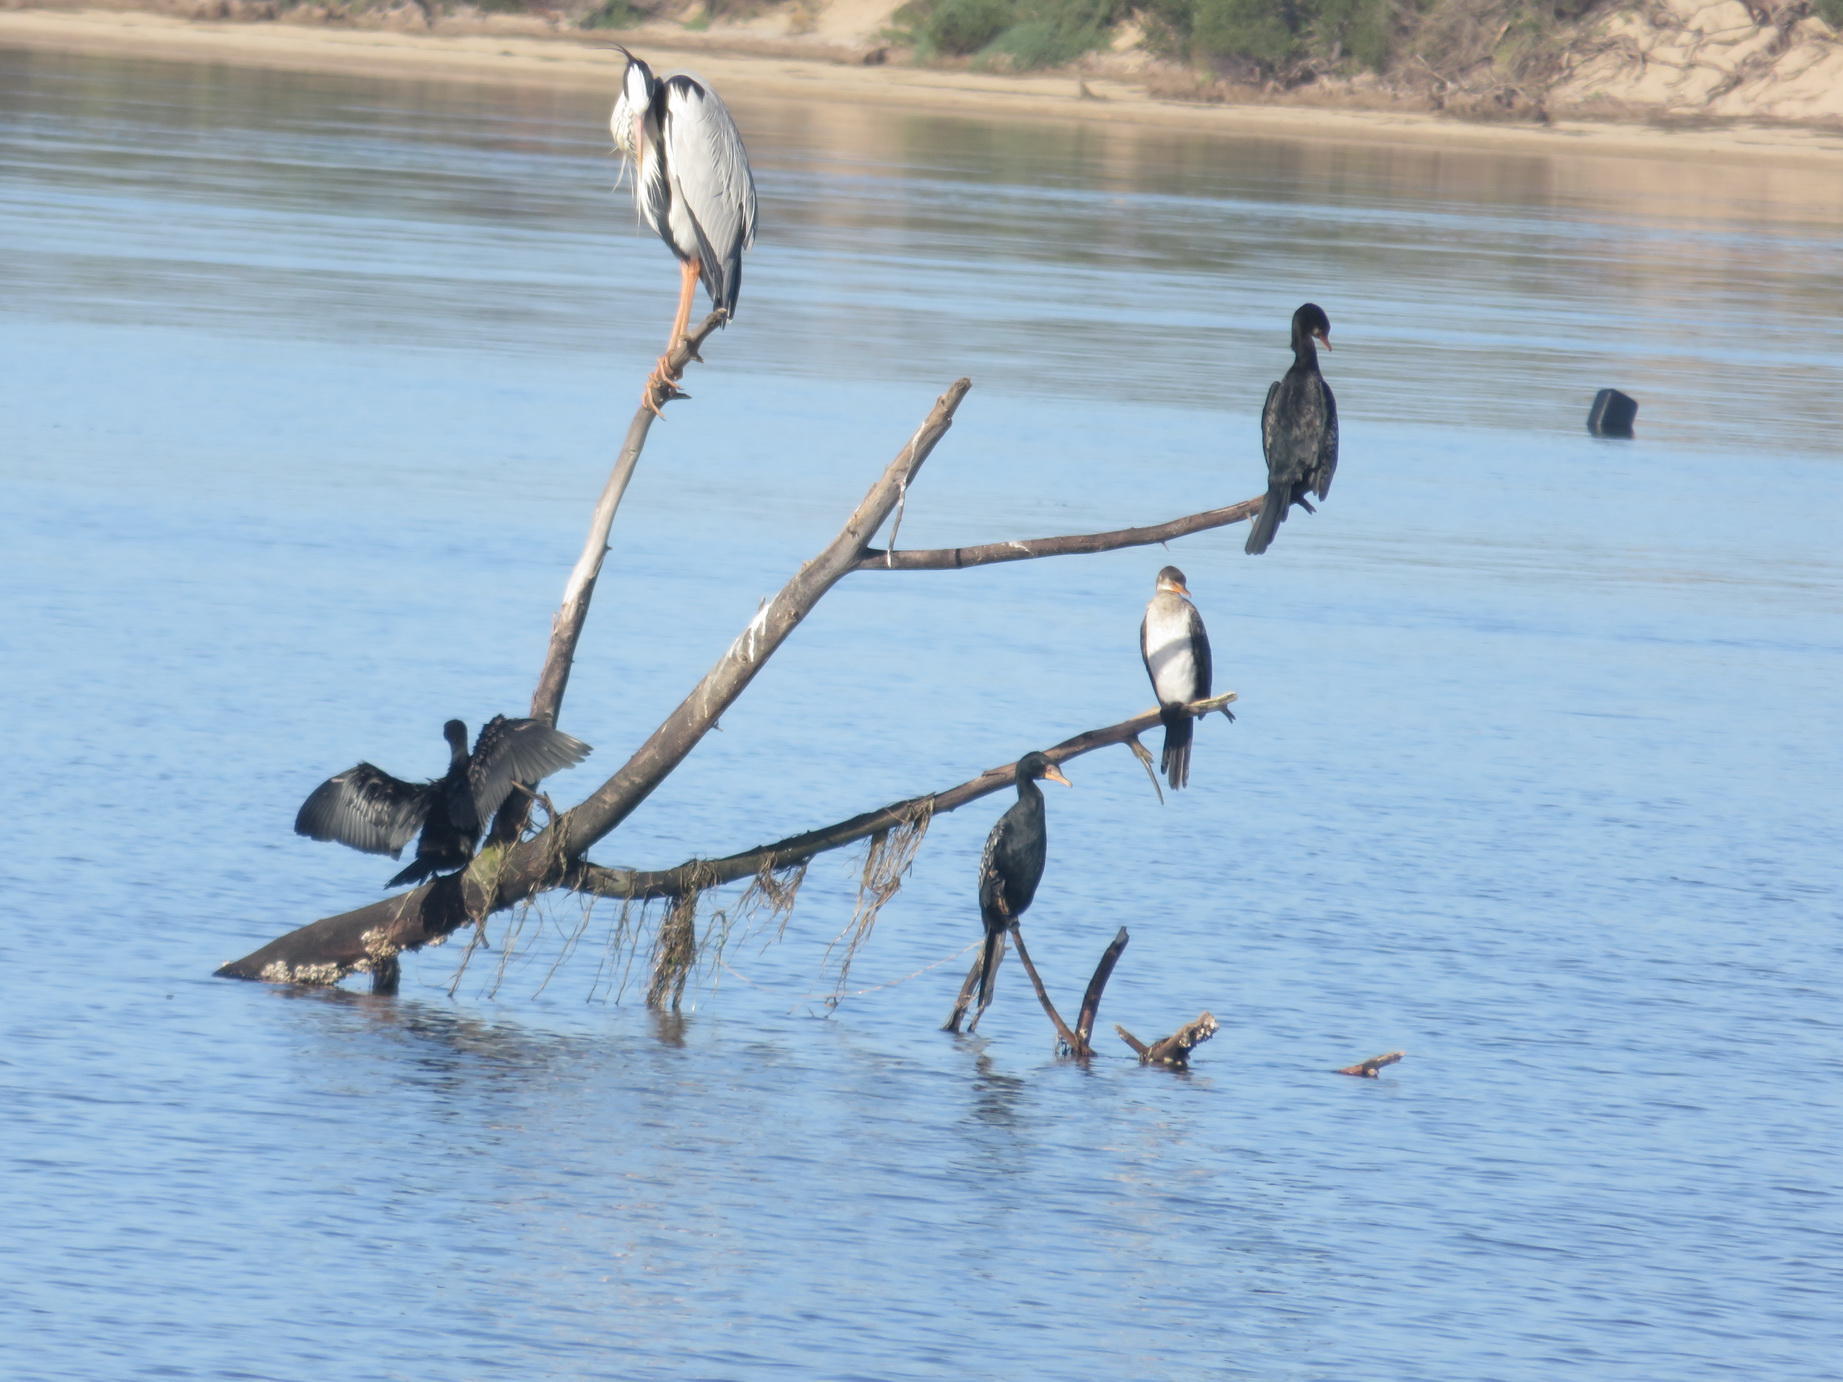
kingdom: Animalia
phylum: Chordata
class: Aves
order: Suliformes
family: Phalacrocoracidae
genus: Microcarbo
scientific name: Microcarbo africanus
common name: Long-tailed cormorant
